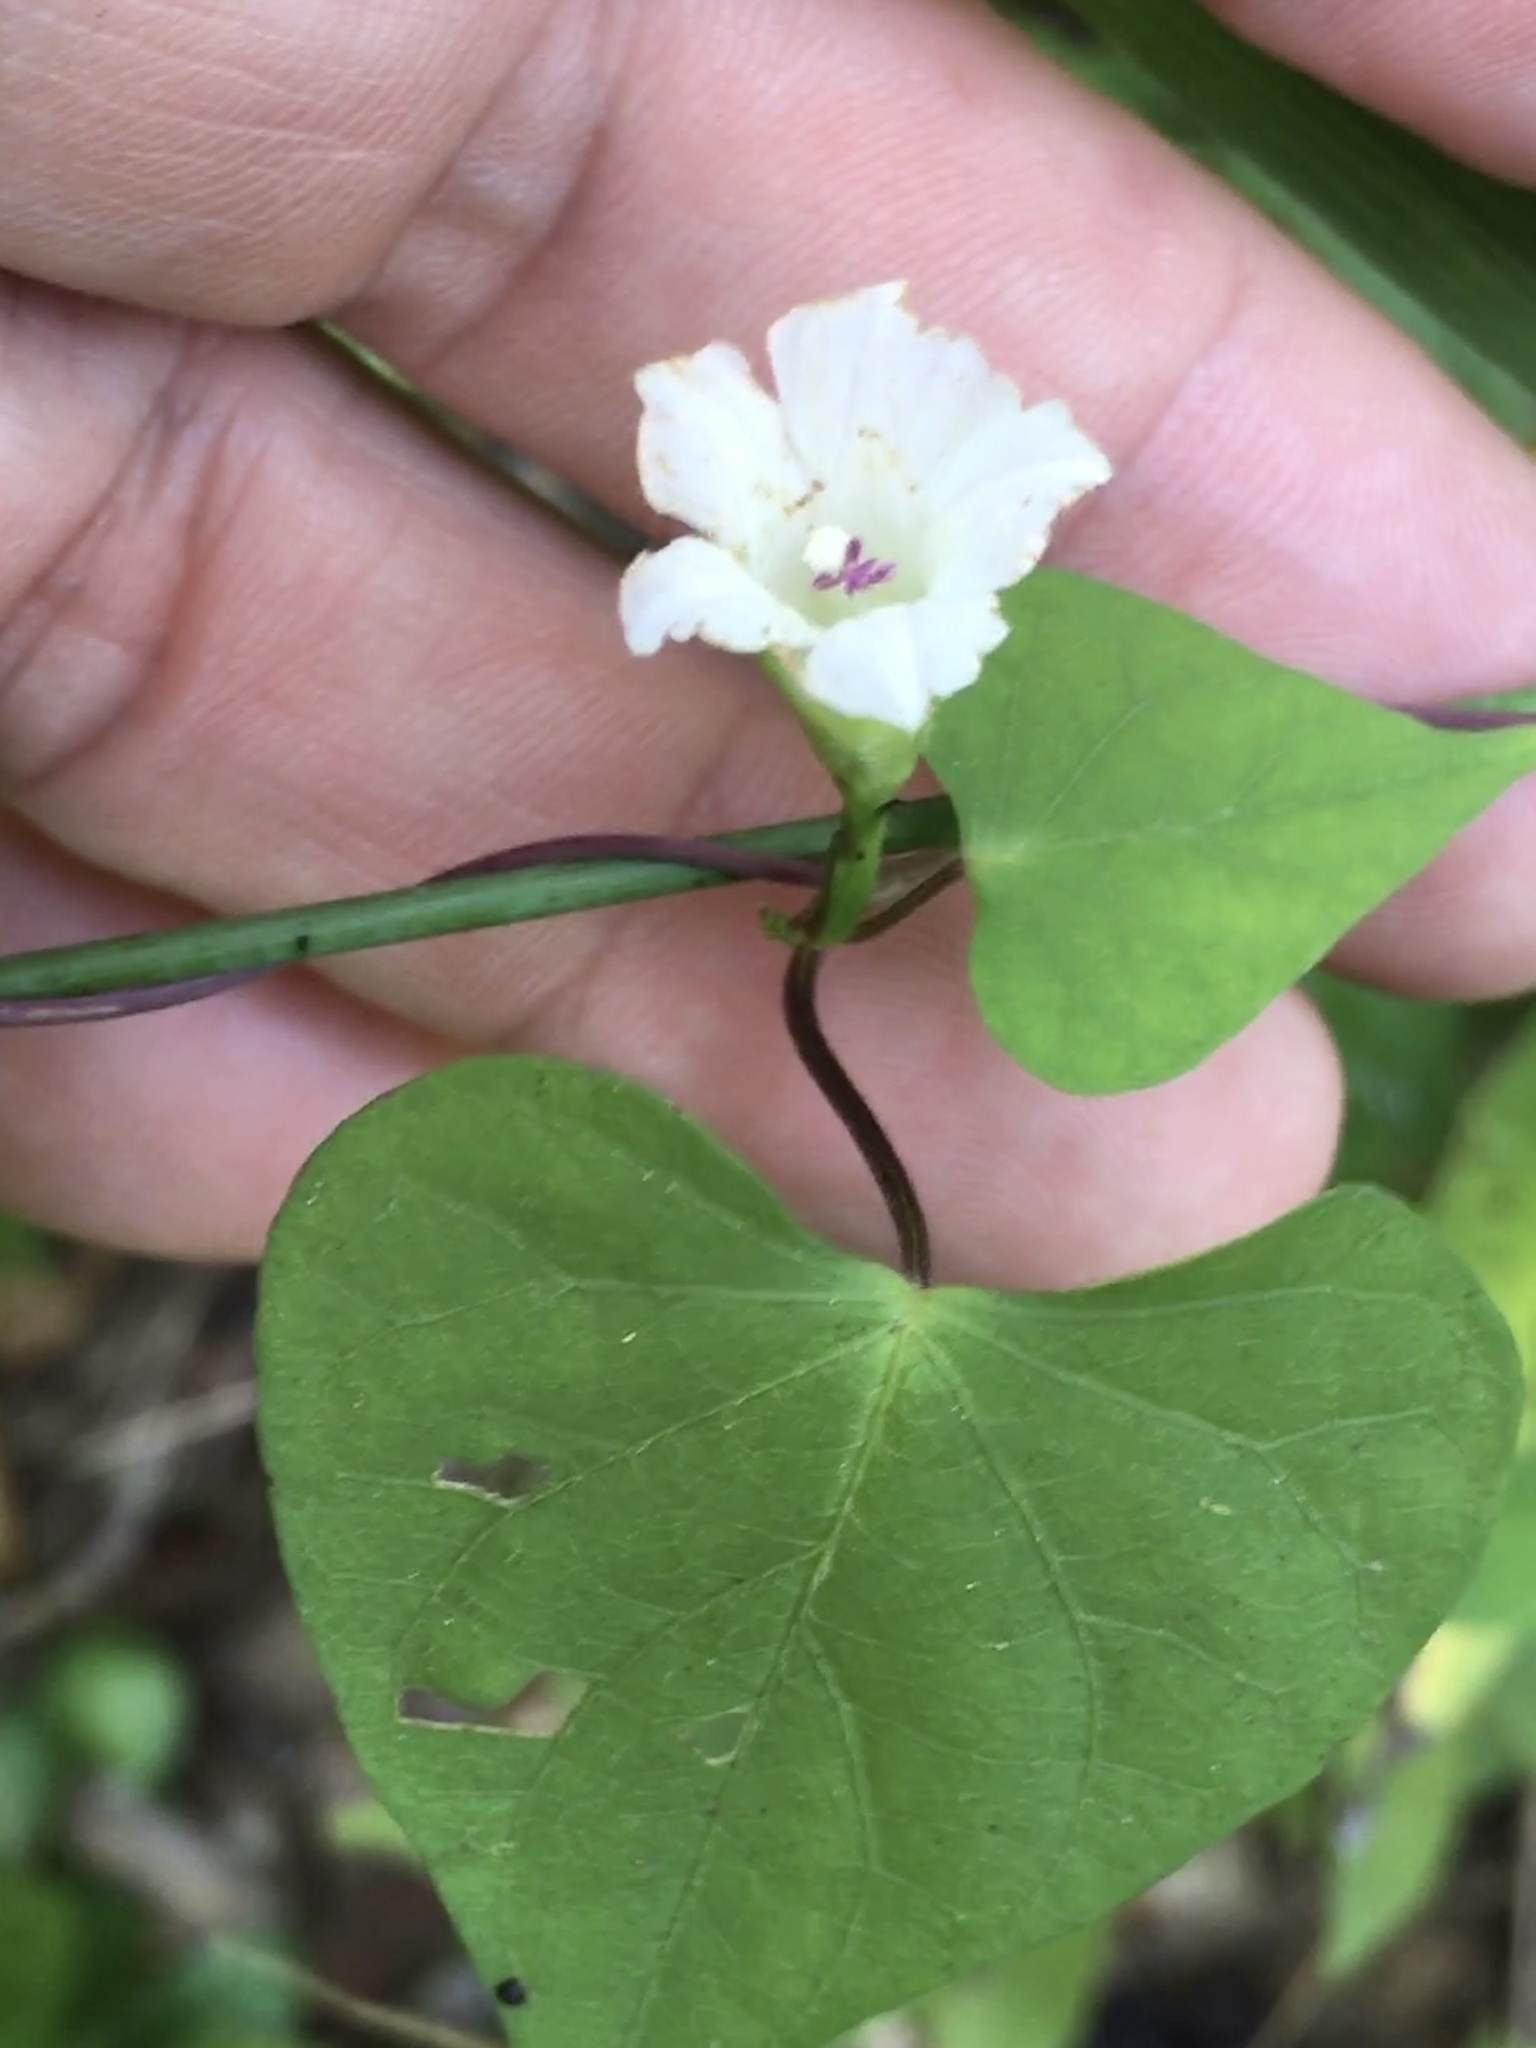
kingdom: Plantae
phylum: Tracheophyta
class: Magnoliopsida
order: Solanales
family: Convolvulaceae
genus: Ipomoea
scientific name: Ipomoea lacunosa
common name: White morning-glory
